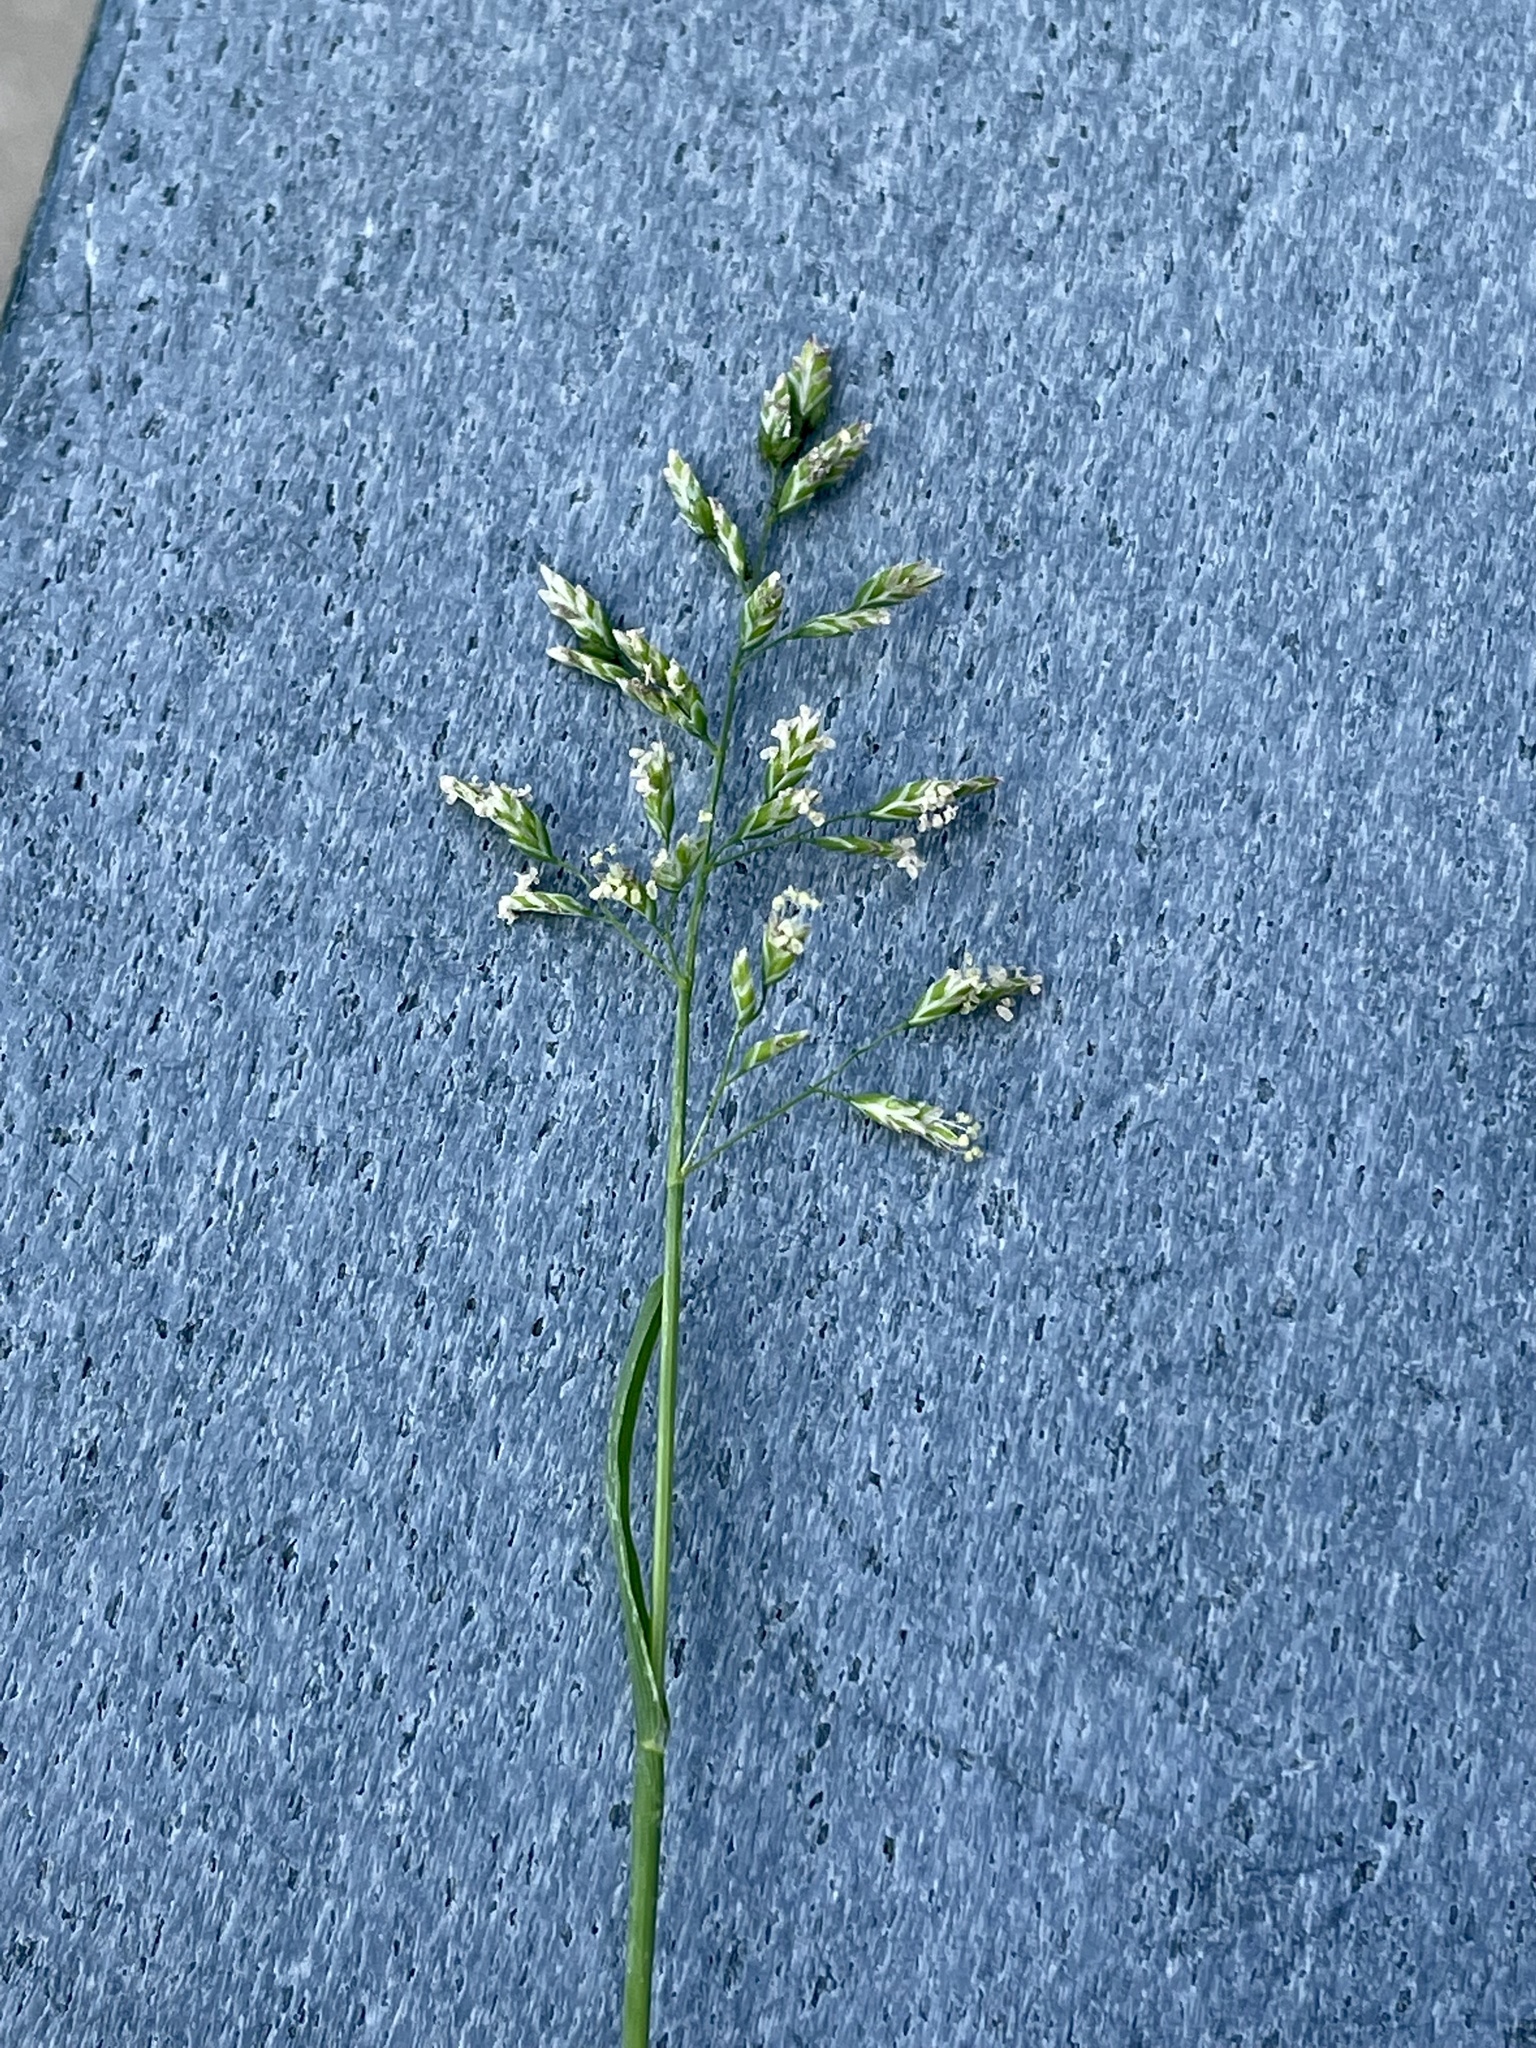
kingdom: Plantae
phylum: Tracheophyta
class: Liliopsida
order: Poales
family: Poaceae
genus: Poa
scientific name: Poa annua
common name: Annual bluegrass
